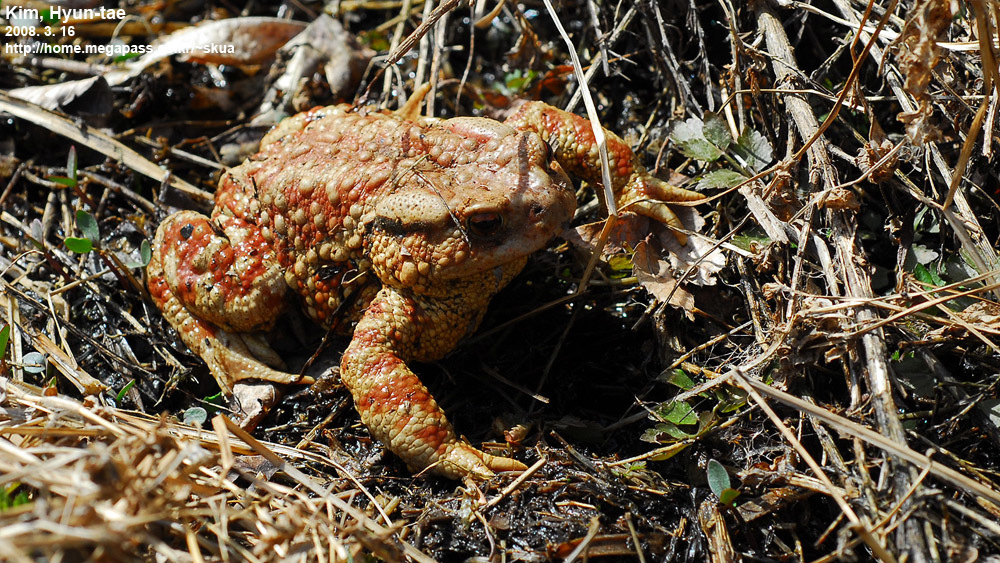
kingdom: Animalia
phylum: Chordata
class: Amphibia
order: Anura
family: Bufonidae
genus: Bufo
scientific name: Bufo gargarizans
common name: Asiatic toad
